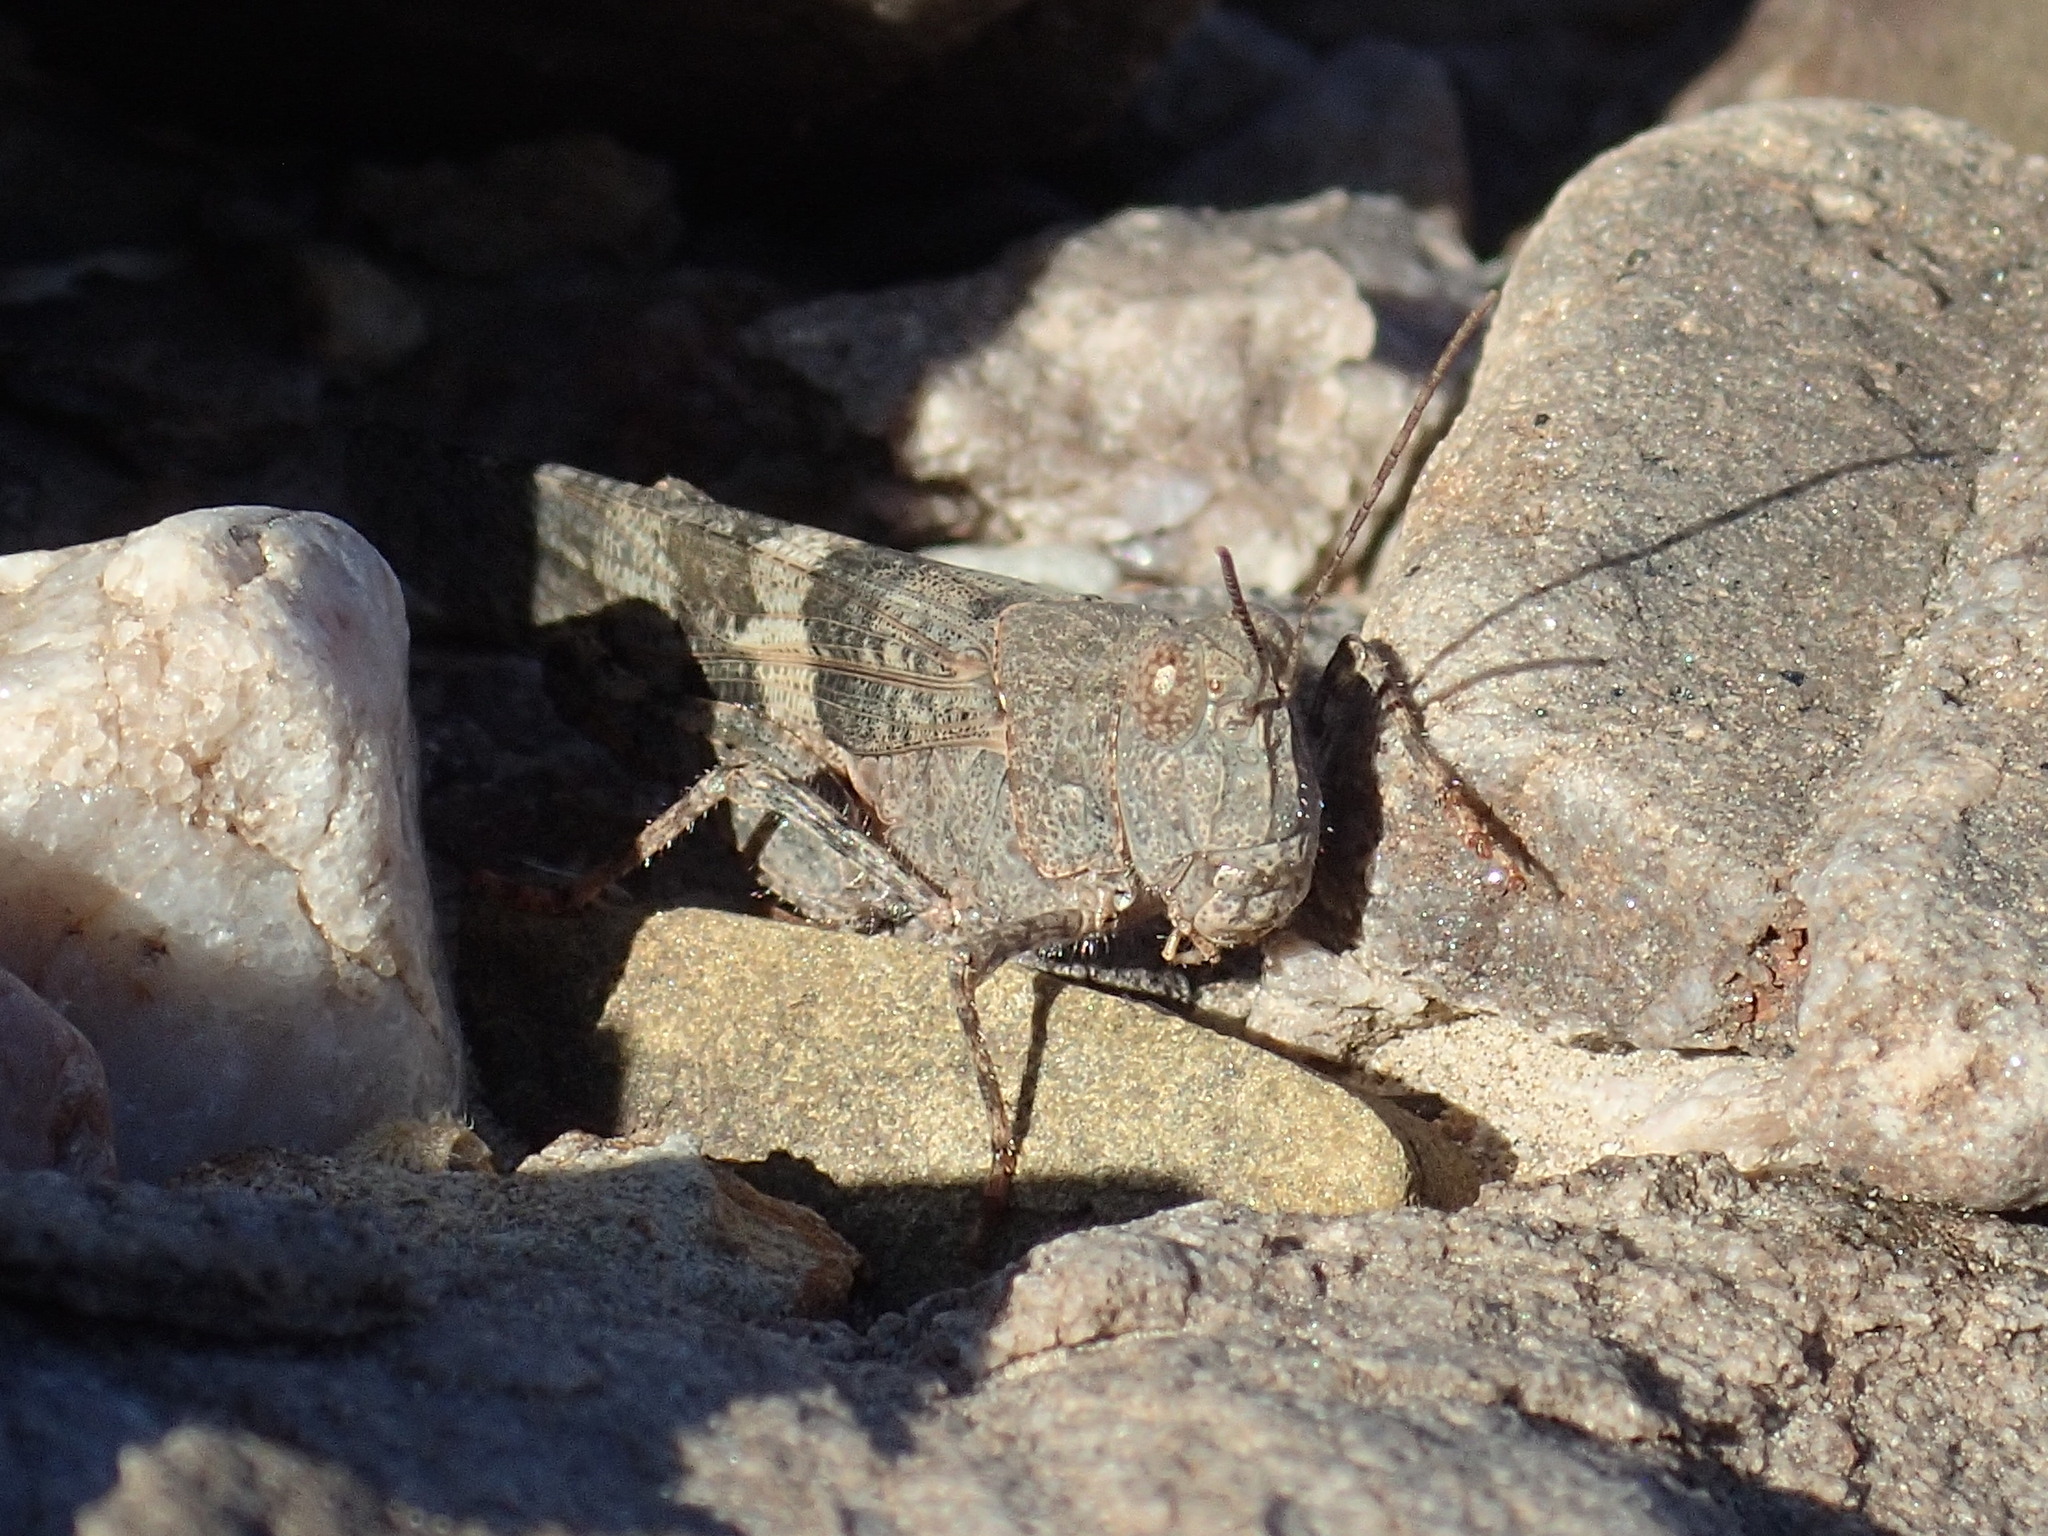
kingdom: Animalia
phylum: Arthropoda
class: Insecta
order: Orthoptera
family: Acrididae
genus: Trimerotropis
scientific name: Trimerotropis pallidipennis
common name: Pallid-winged grasshopper
